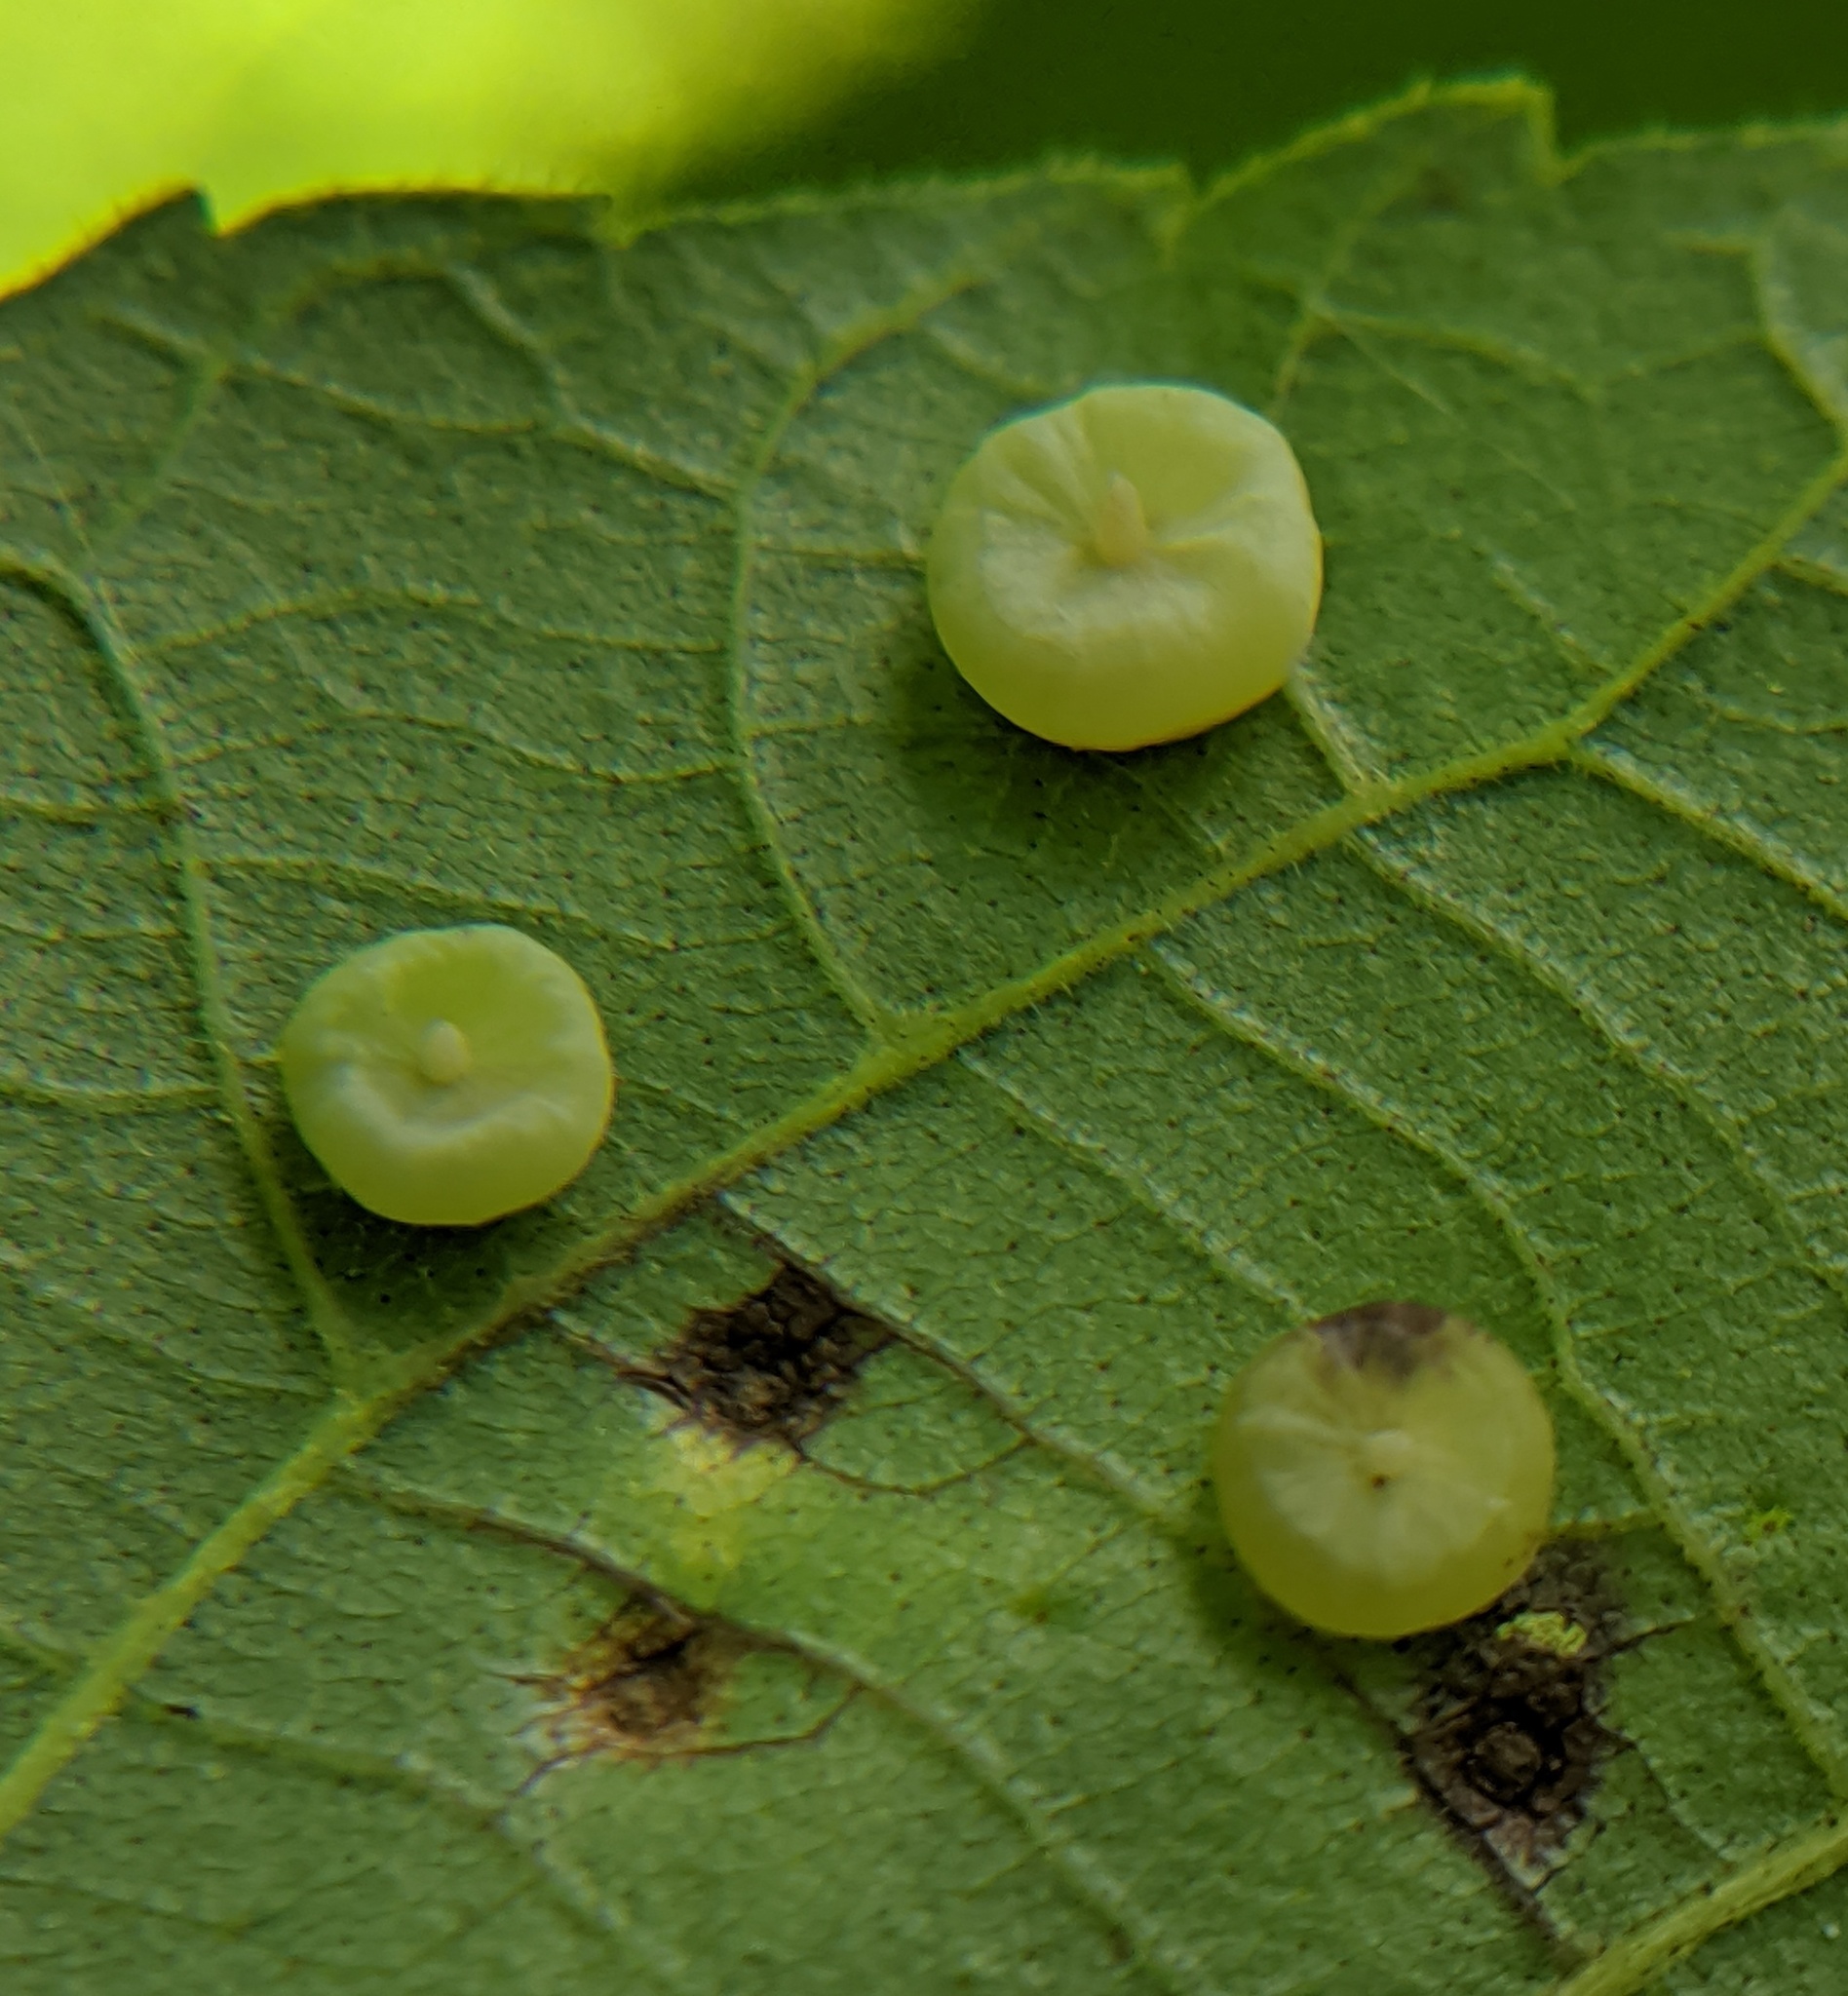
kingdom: Animalia
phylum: Arthropoda
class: Insecta
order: Diptera
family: Cecidomyiidae
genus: Caryomyia
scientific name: Caryomyia biretta
